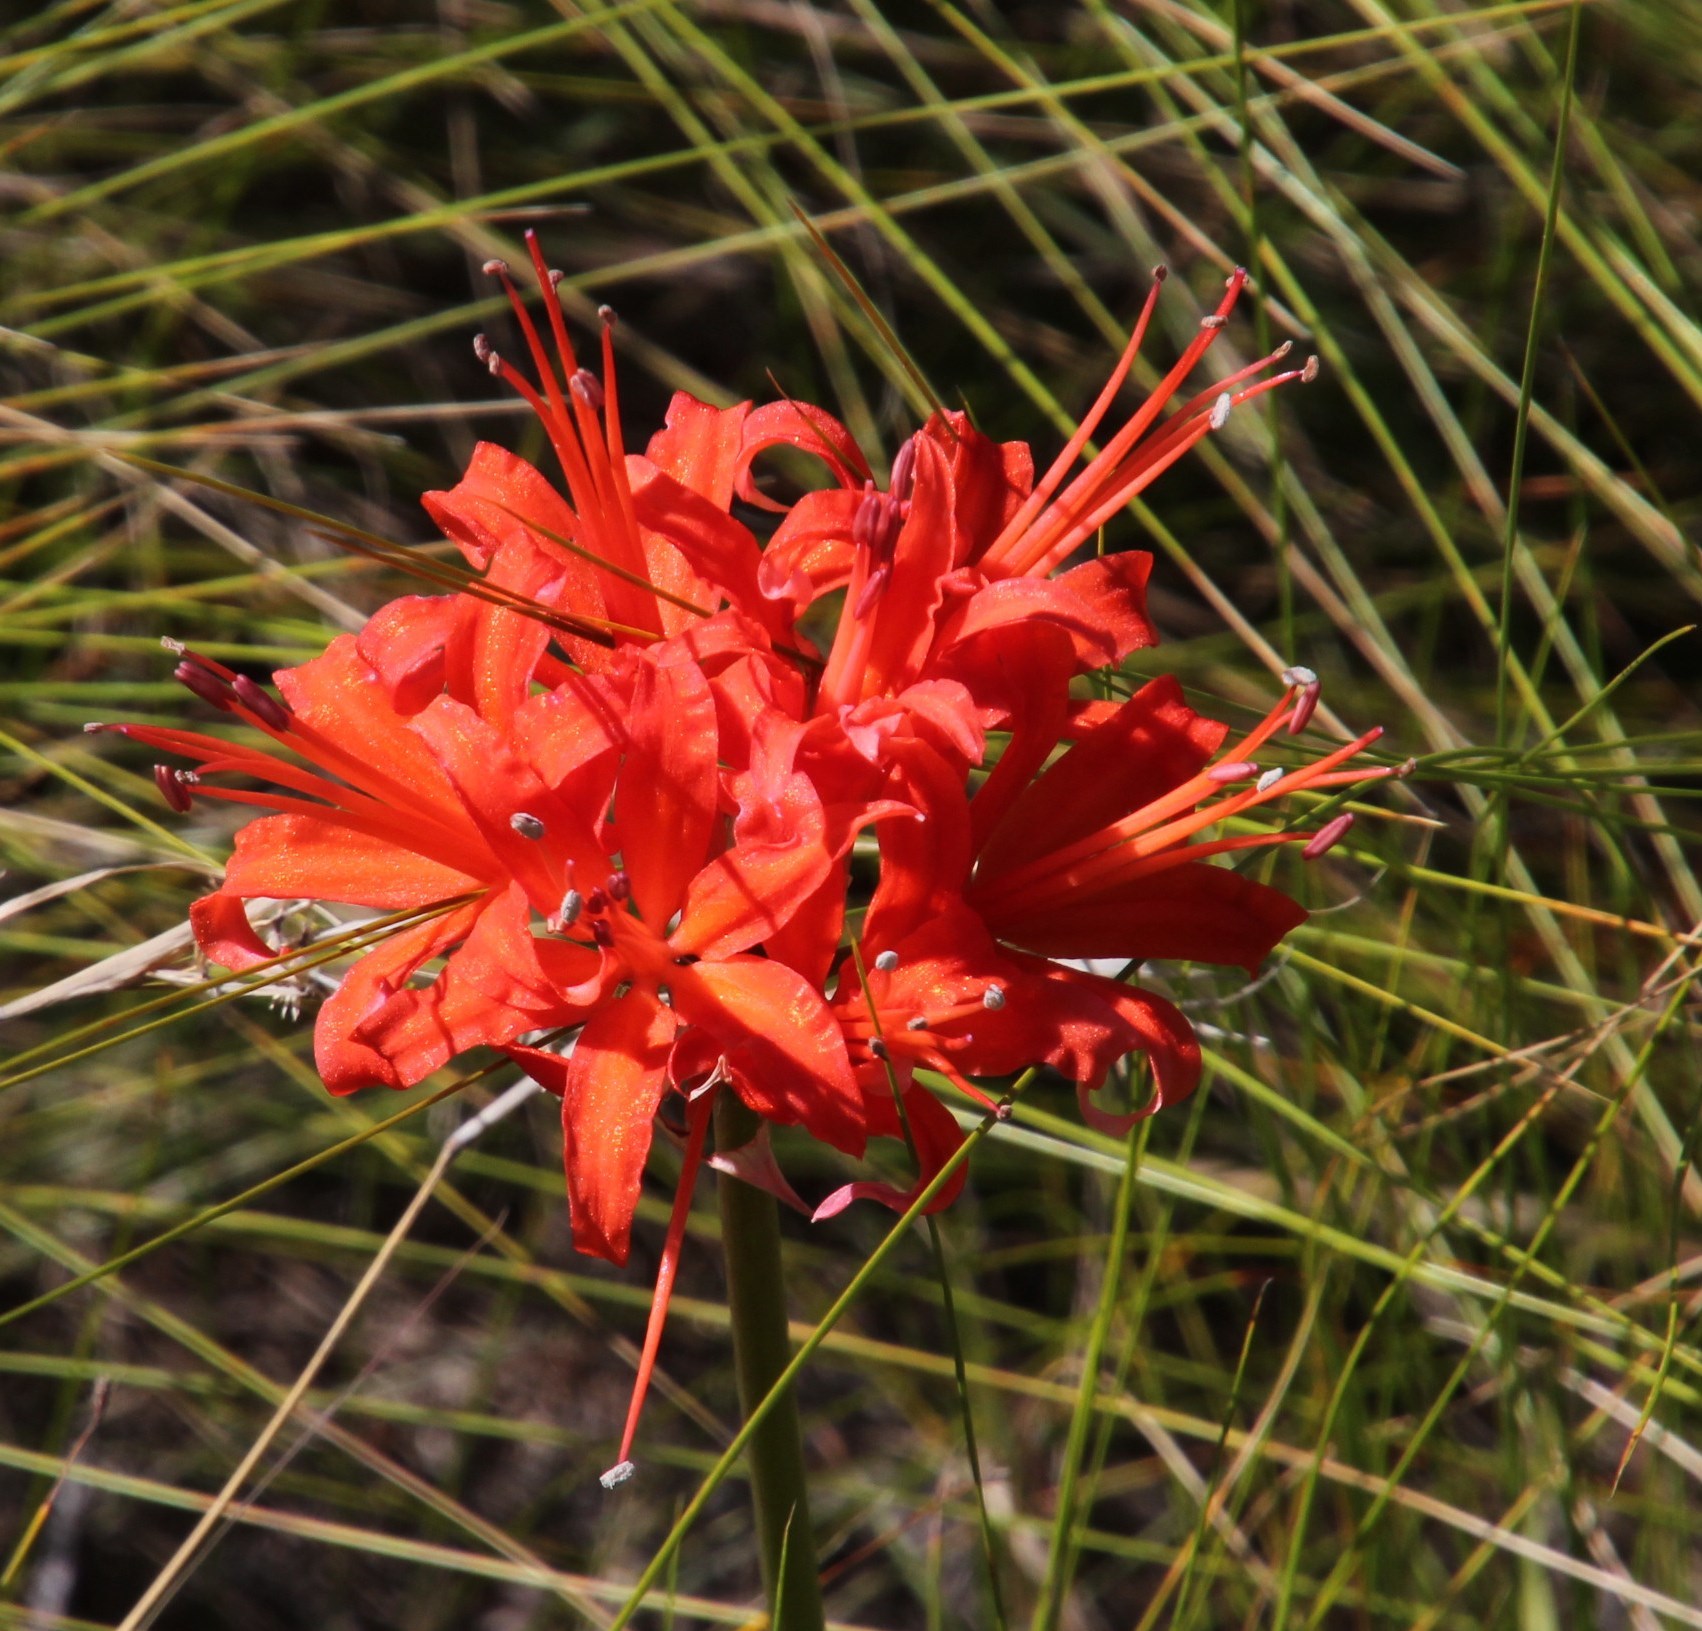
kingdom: Plantae
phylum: Tracheophyta
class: Liliopsida
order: Asparagales
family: Amaryllidaceae
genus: Nerine
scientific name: Nerine sarniensis
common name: Guernsey-lily
